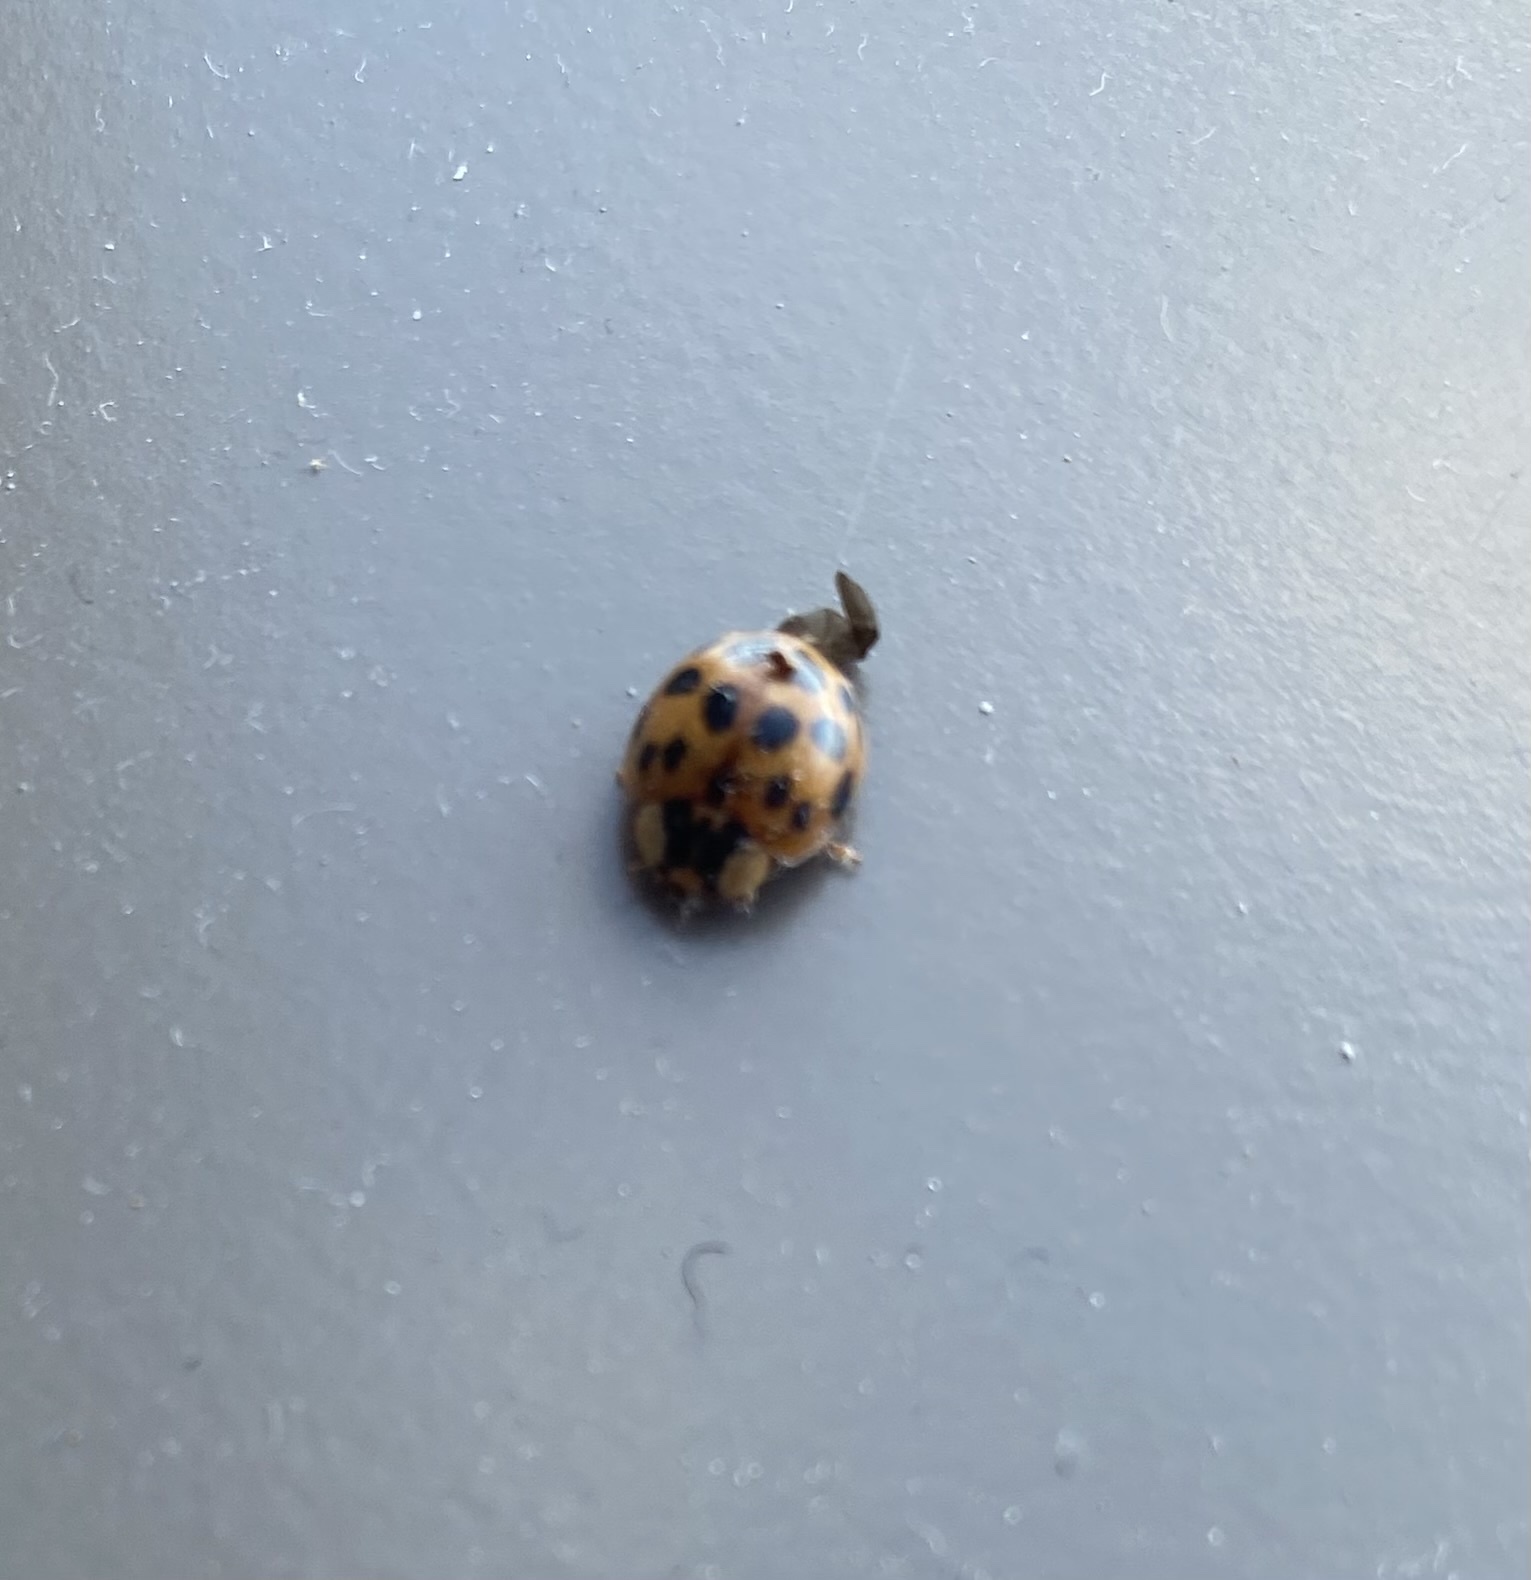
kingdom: Animalia
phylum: Arthropoda
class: Insecta
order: Coleoptera
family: Coccinellidae
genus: Harmonia
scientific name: Harmonia axyridis
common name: Harlequin ladybird
